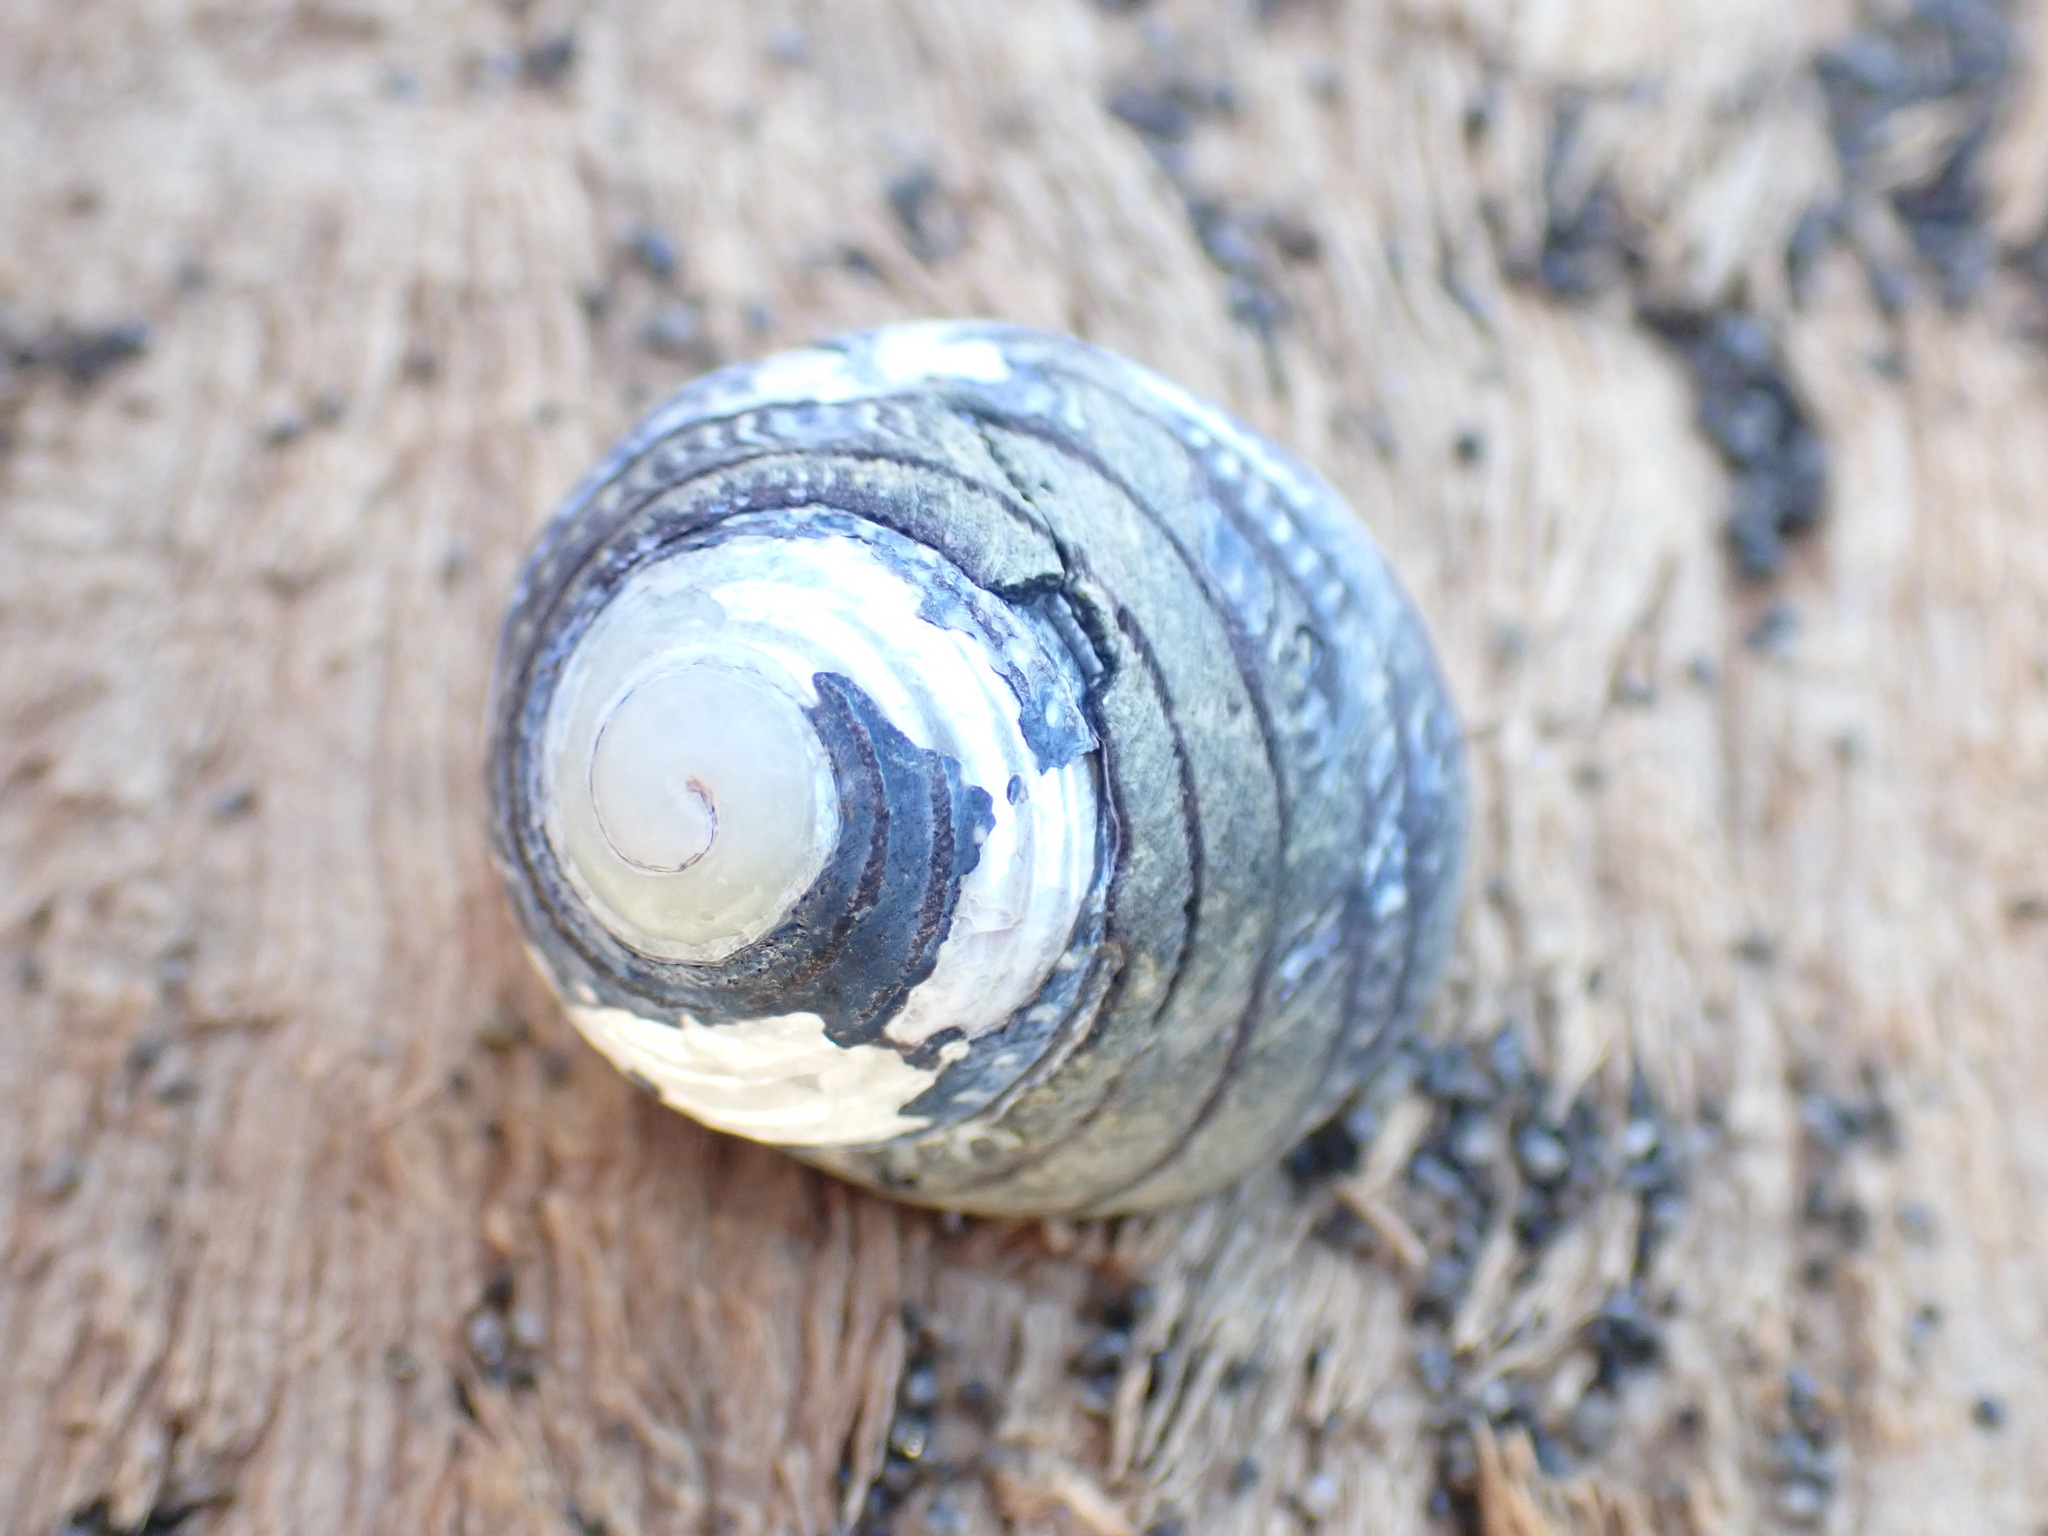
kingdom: Animalia
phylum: Mollusca
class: Gastropoda
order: Trochida
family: Trochidae
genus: Diloma
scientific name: Diloma aethiops
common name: Scorched monodont
